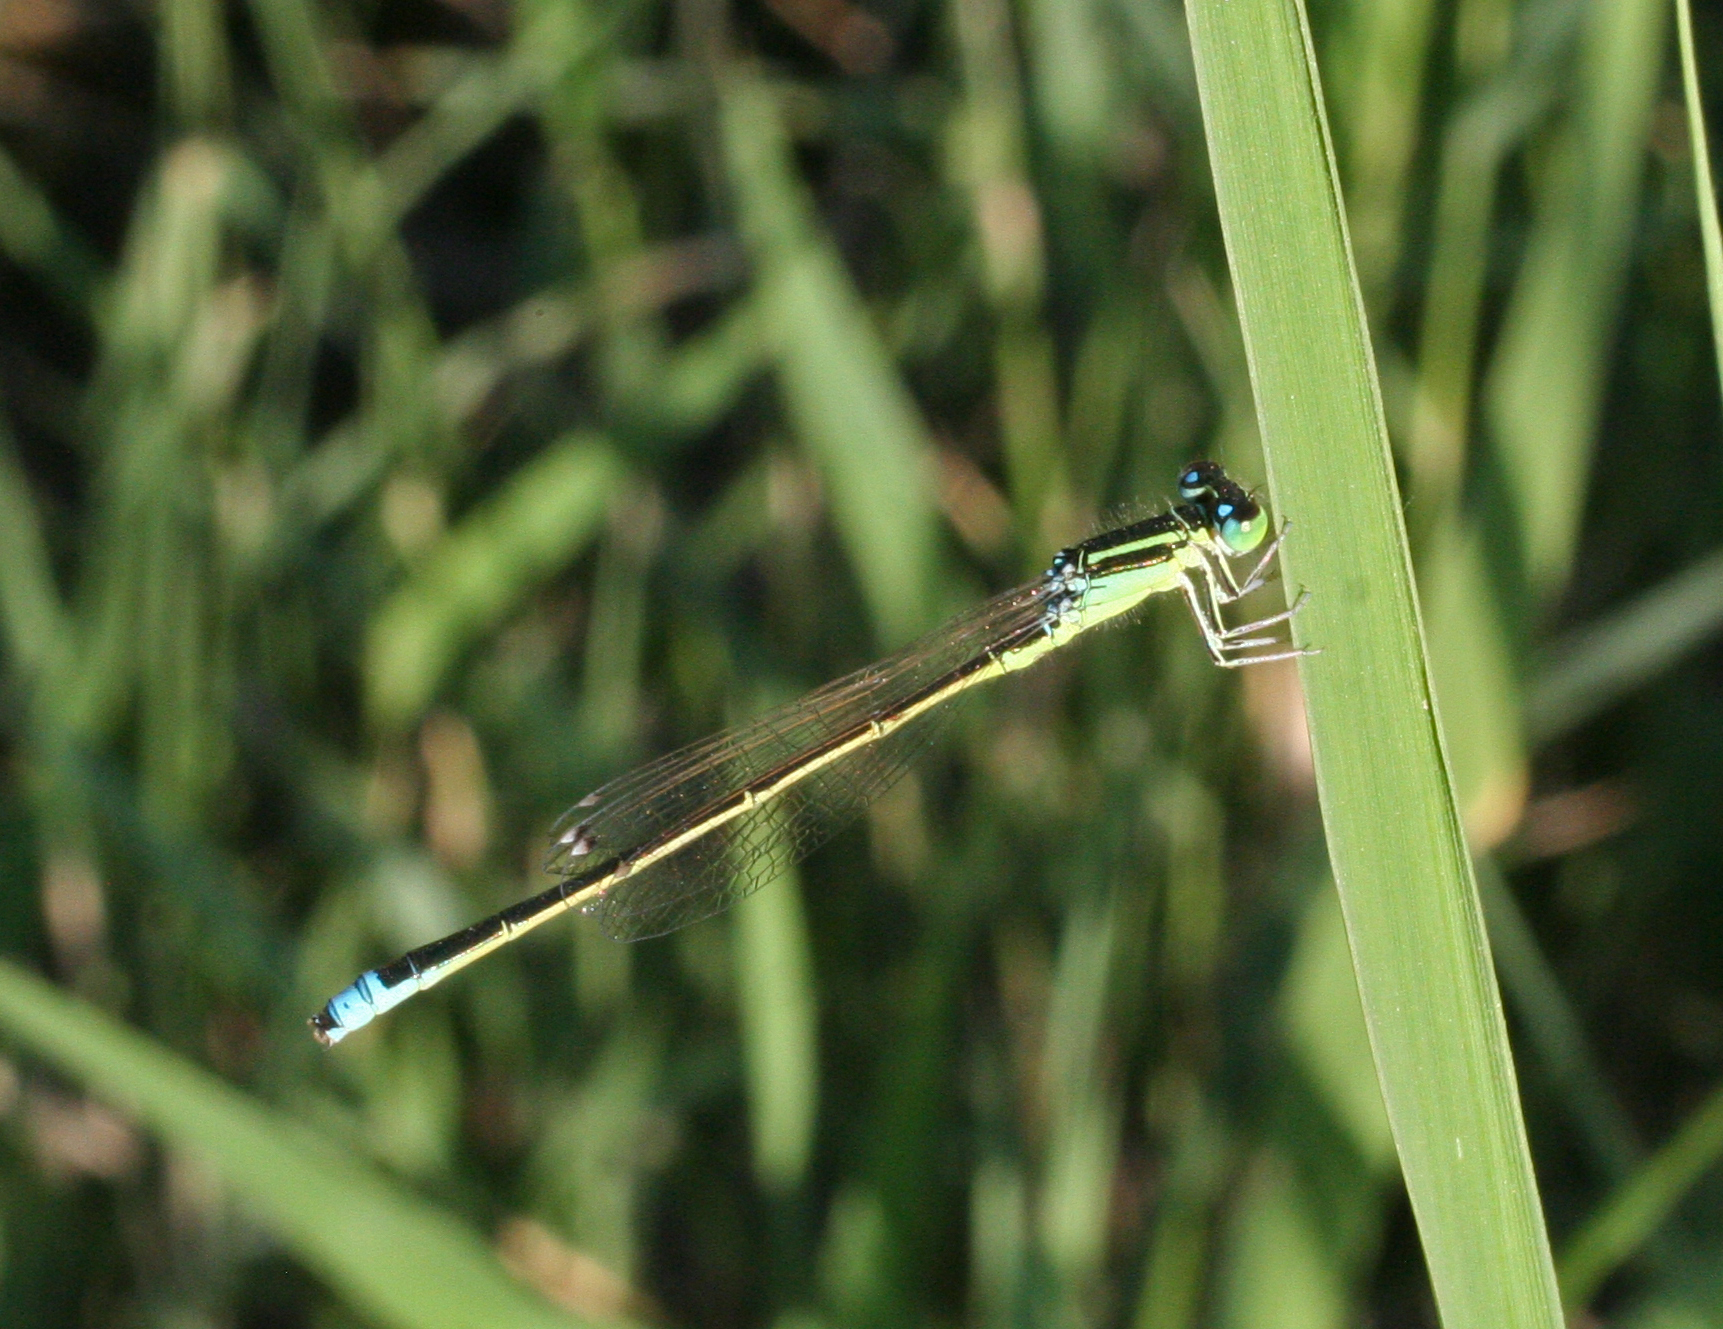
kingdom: Animalia
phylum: Arthropoda
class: Insecta
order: Odonata
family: Coenagrionidae
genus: Ischnura
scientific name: Ischnura pumilio
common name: Scarce blue-tailed damselfly
